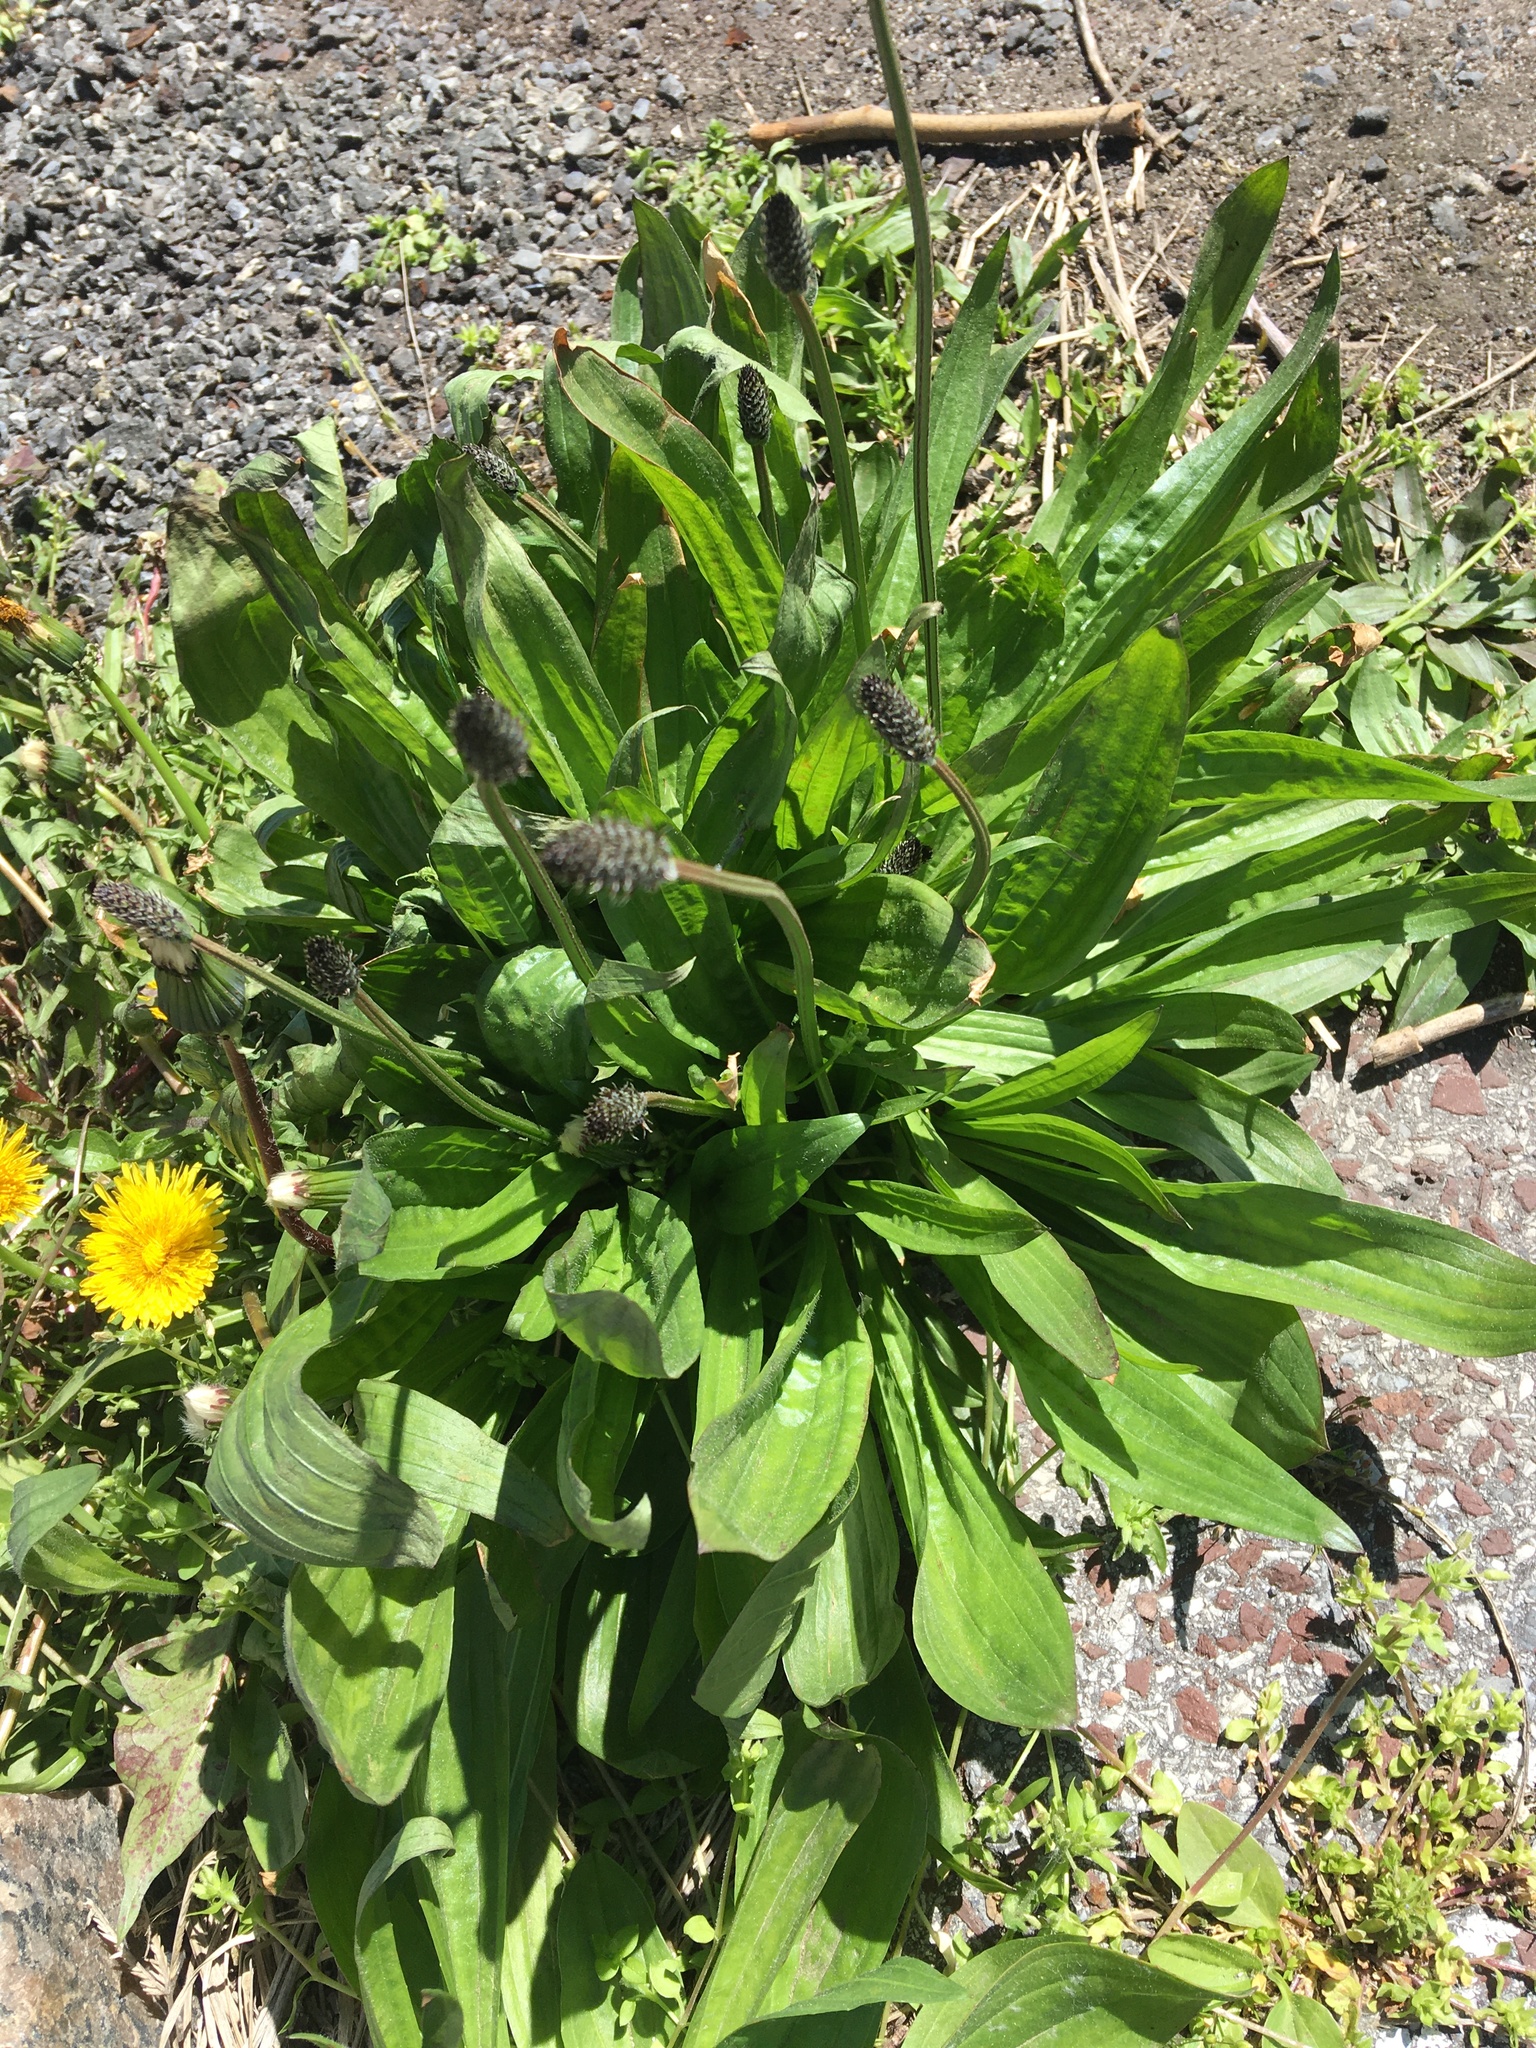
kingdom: Plantae
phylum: Tracheophyta
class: Magnoliopsida
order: Lamiales
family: Plantaginaceae
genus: Plantago
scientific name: Plantago lanceolata
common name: Ribwort plantain
